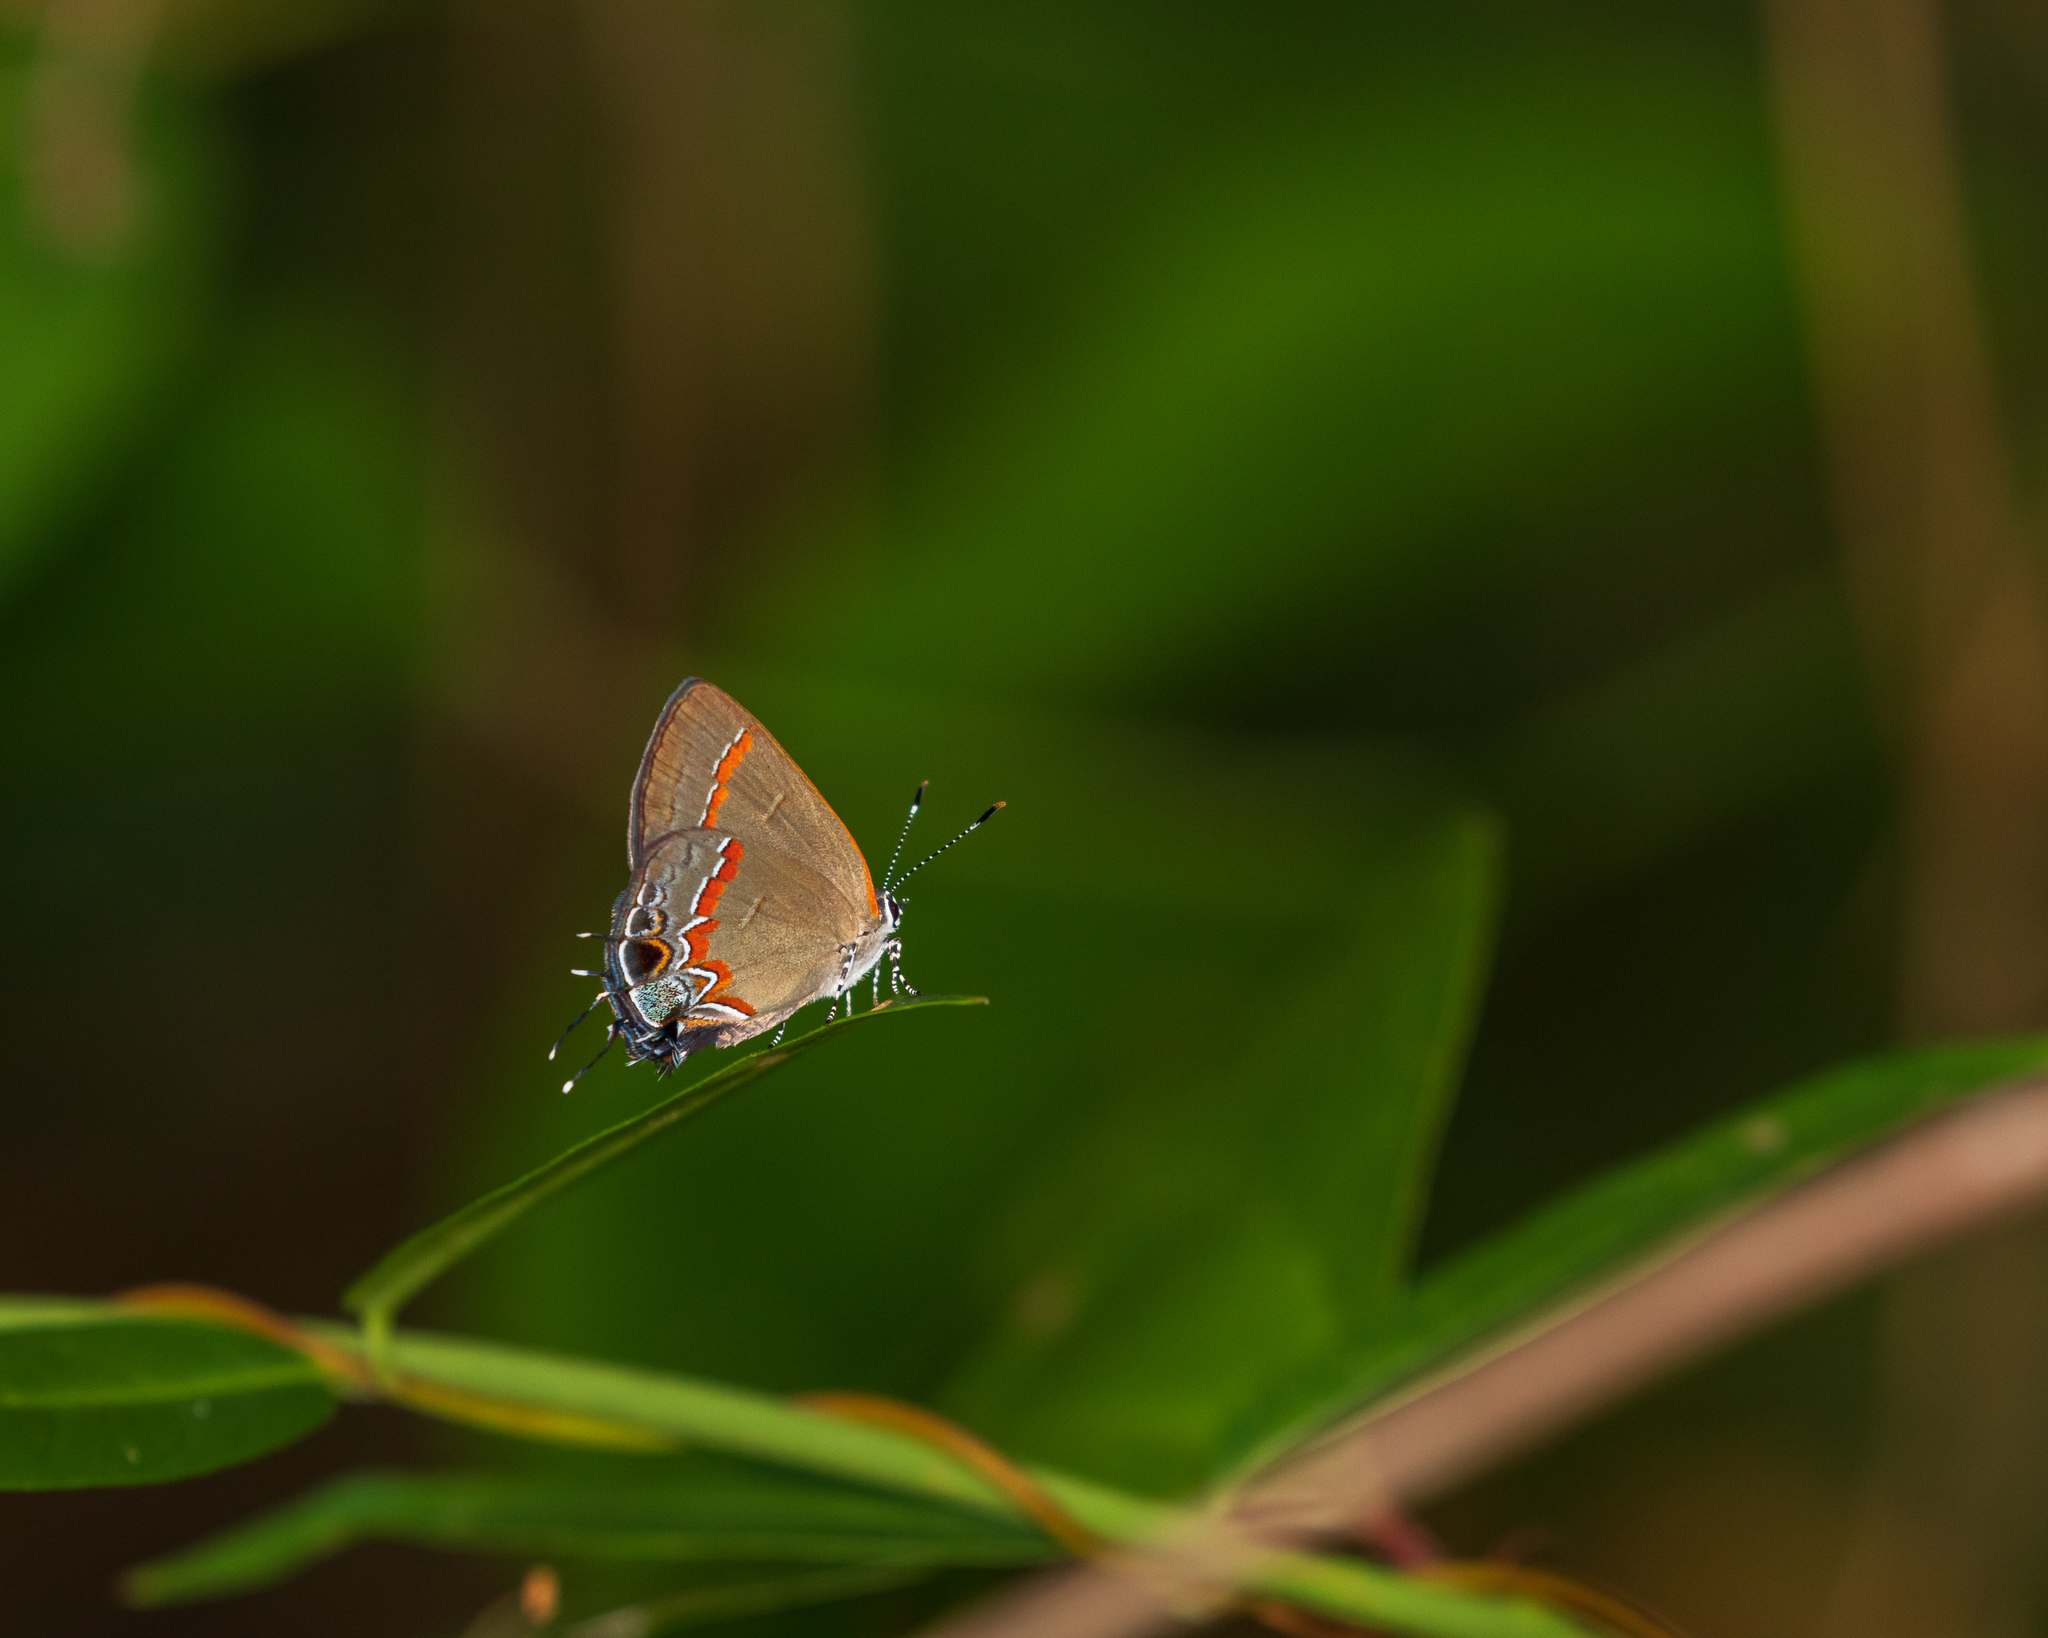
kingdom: Animalia
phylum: Arthropoda
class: Insecta
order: Lepidoptera
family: Lycaenidae
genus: Calycopis
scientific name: Calycopis cecrops
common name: Red-banded hairstreak
